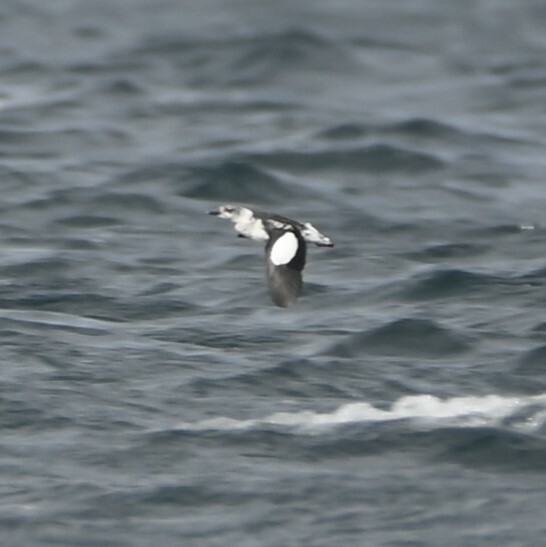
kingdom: Animalia
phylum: Chordata
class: Aves
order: Charadriiformes
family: Alcidae
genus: Cepphus
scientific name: Cepphus grylle
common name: Black guillemot
